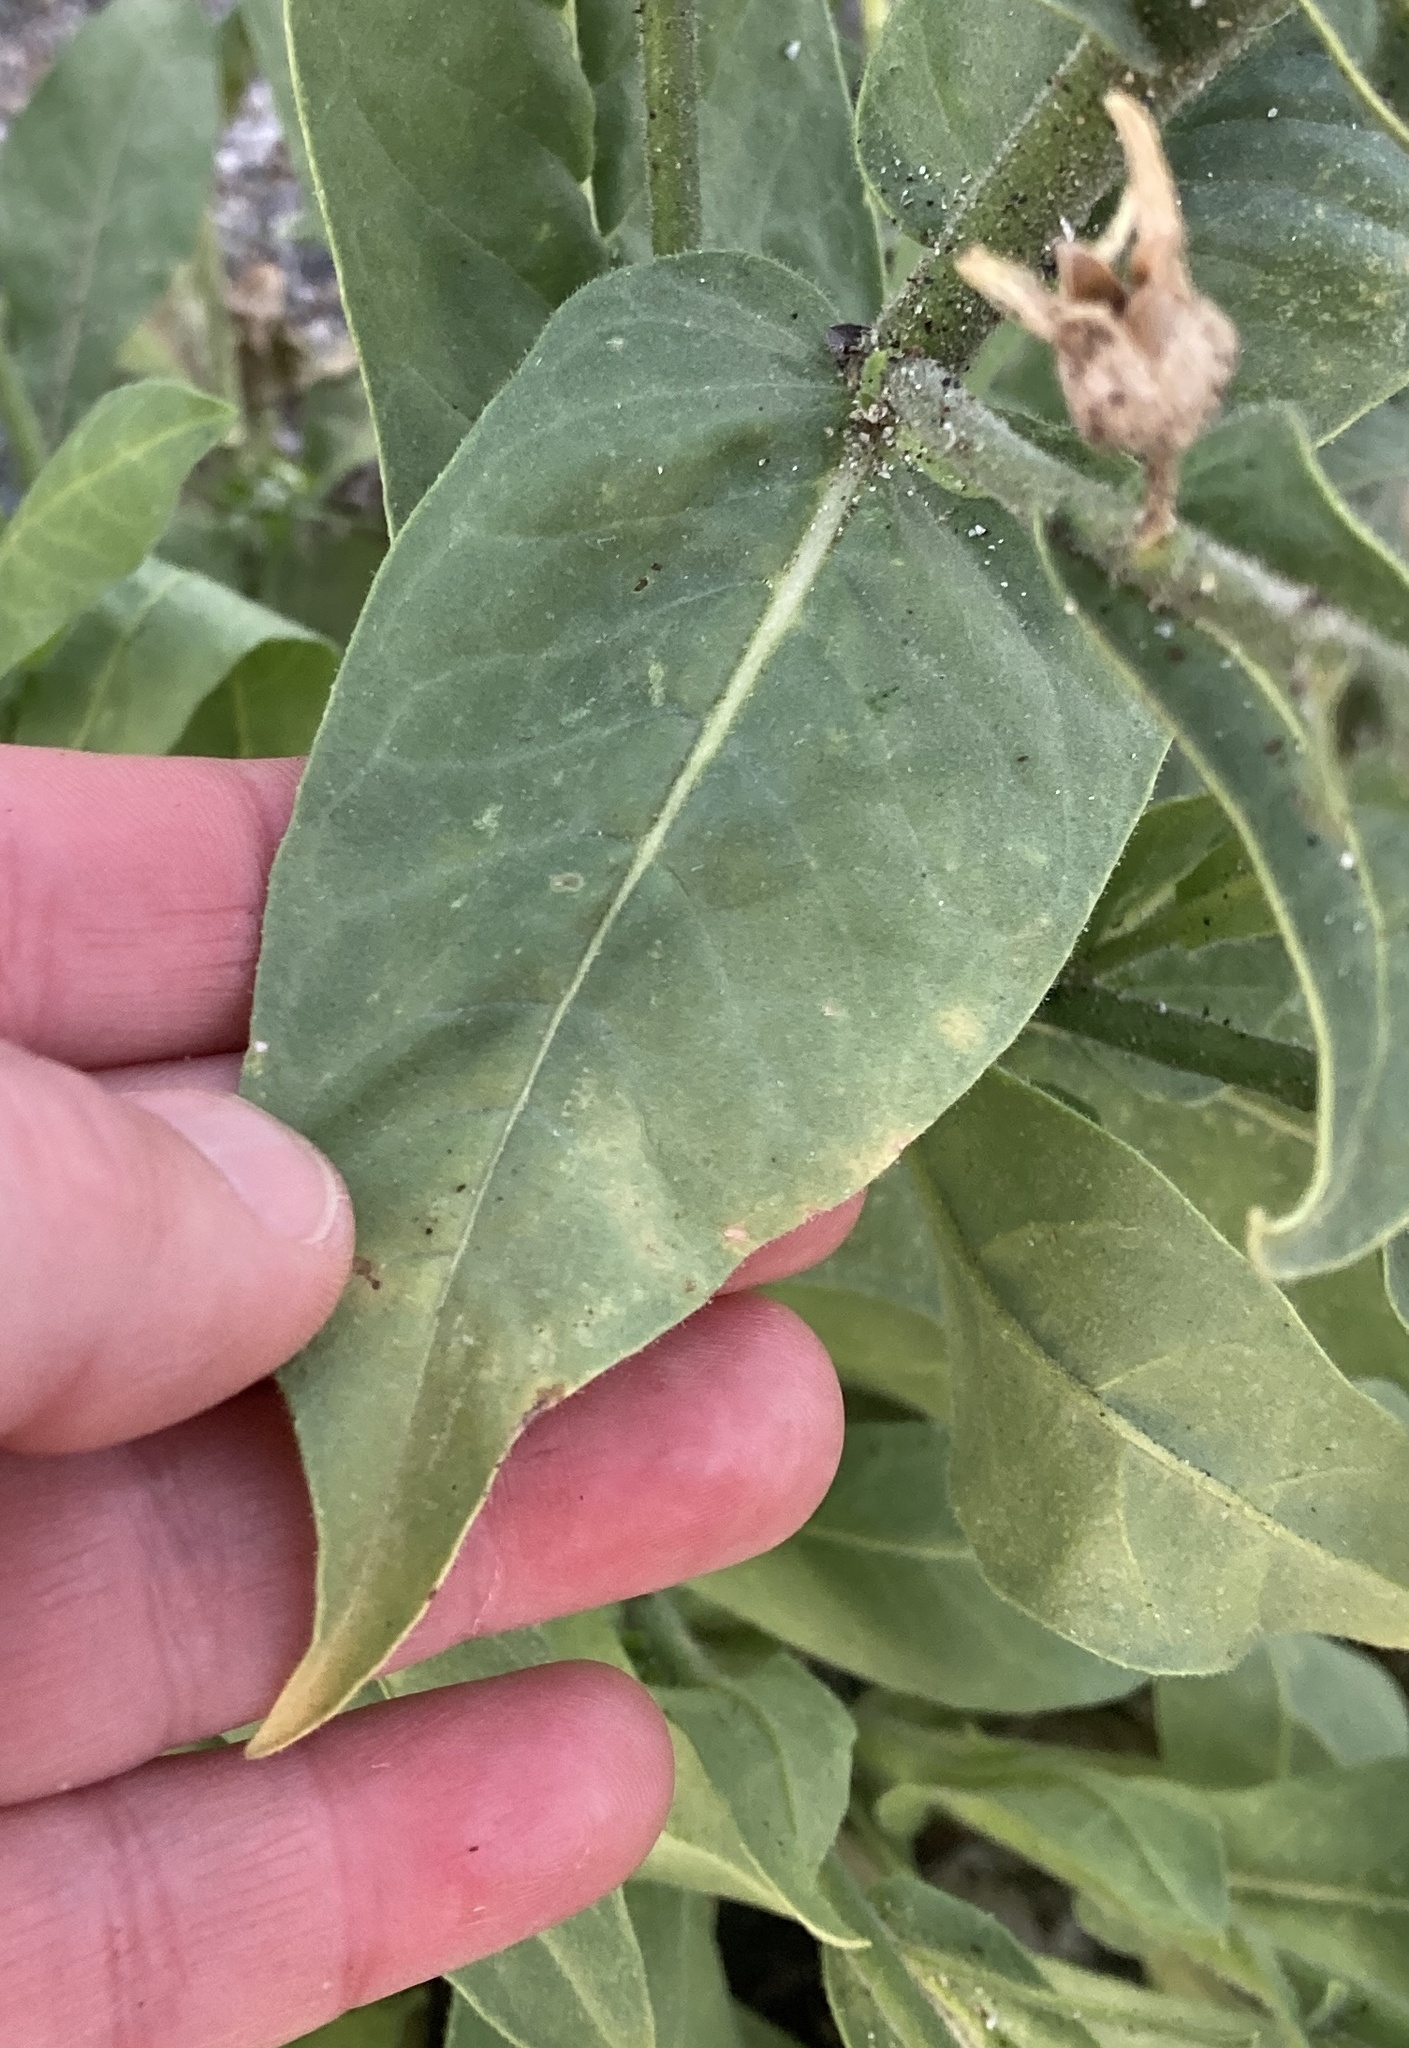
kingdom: Plantae
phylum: Tracheophyta
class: Magnoliopsida
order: Solanales
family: Solanaceae
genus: Nicotiana
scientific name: Nicotiana obtusifolia
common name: Desert tobacco
